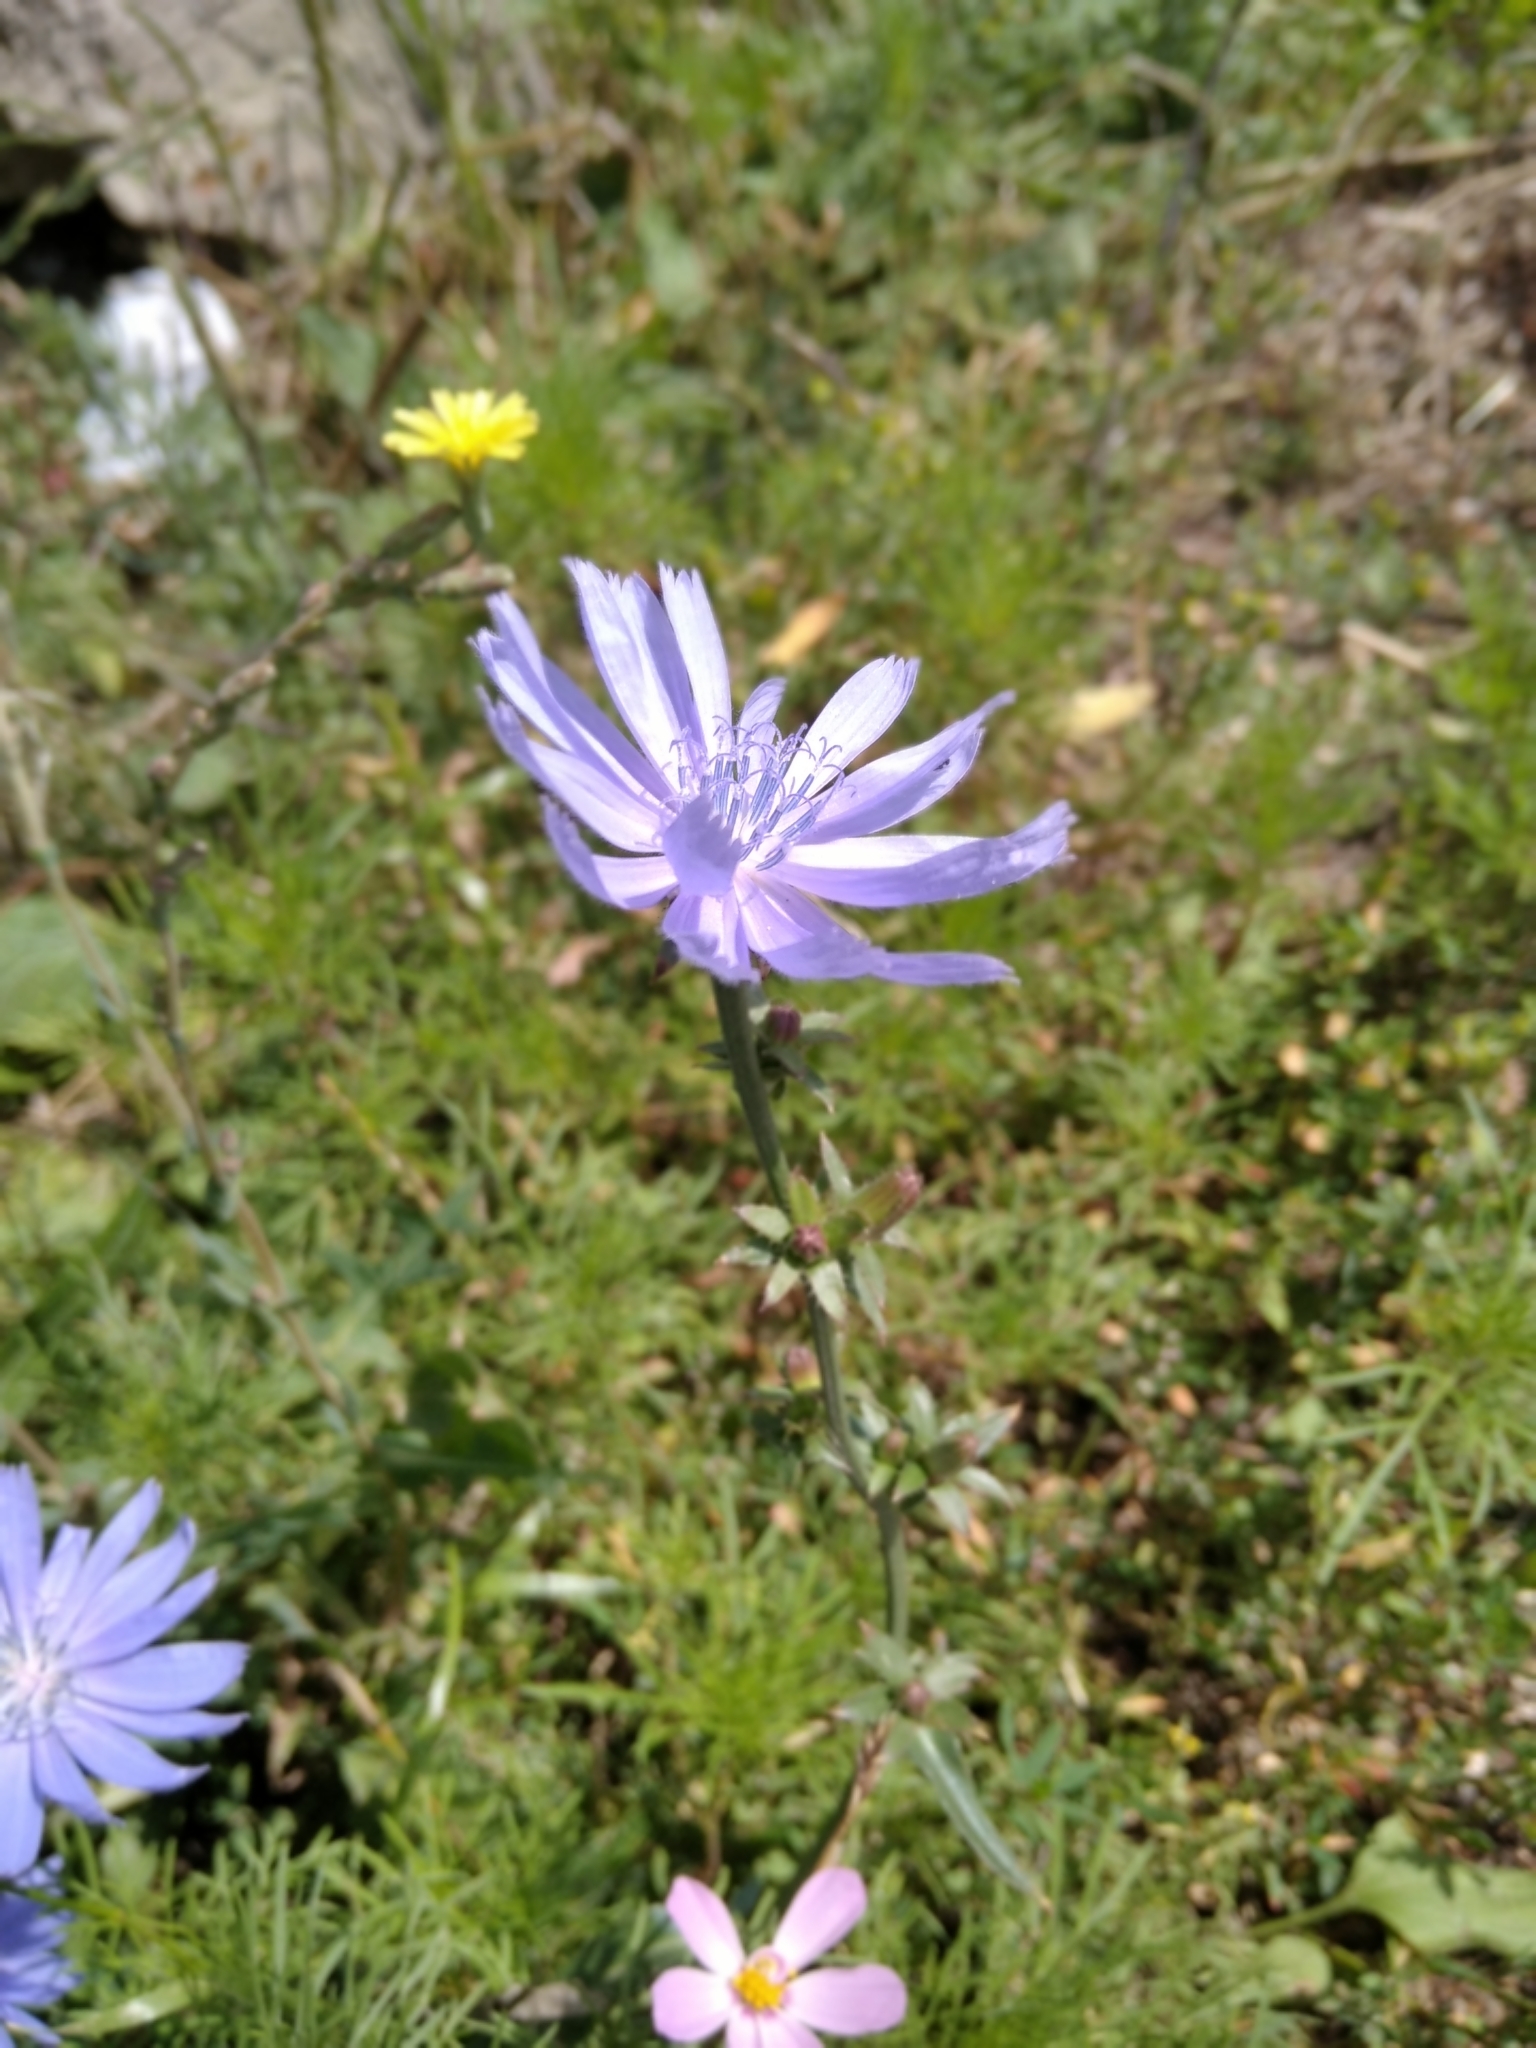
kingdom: Plantae
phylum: Tracheophyta
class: Magnoliopsida
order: Asterales
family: Asteraceae
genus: Cichorium
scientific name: Cichorium intybus
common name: Chicory
